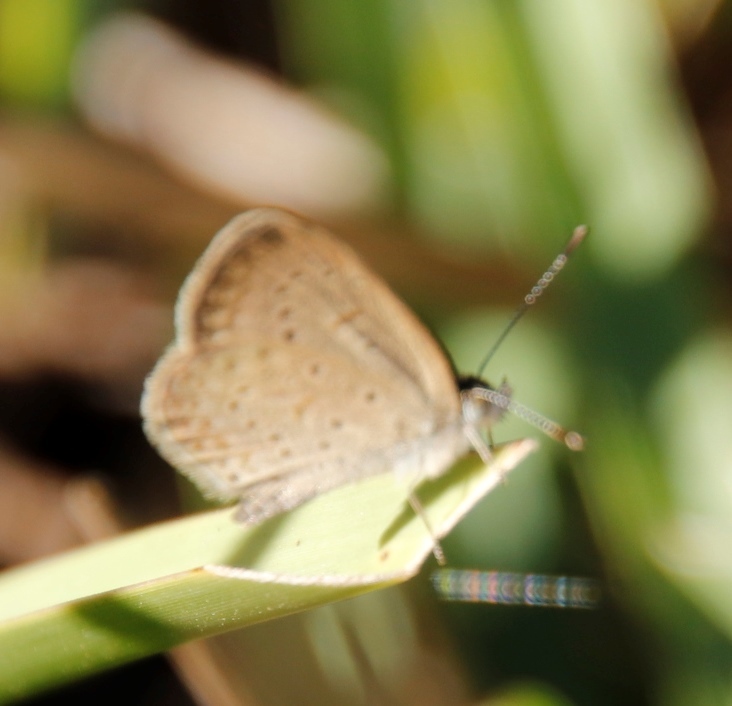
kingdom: Animalia
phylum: Arthropoda
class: Insecta
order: Lepidoptera
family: Lycaenidae
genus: Zizeeria
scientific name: Zizeeria knysna
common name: African grass blue
